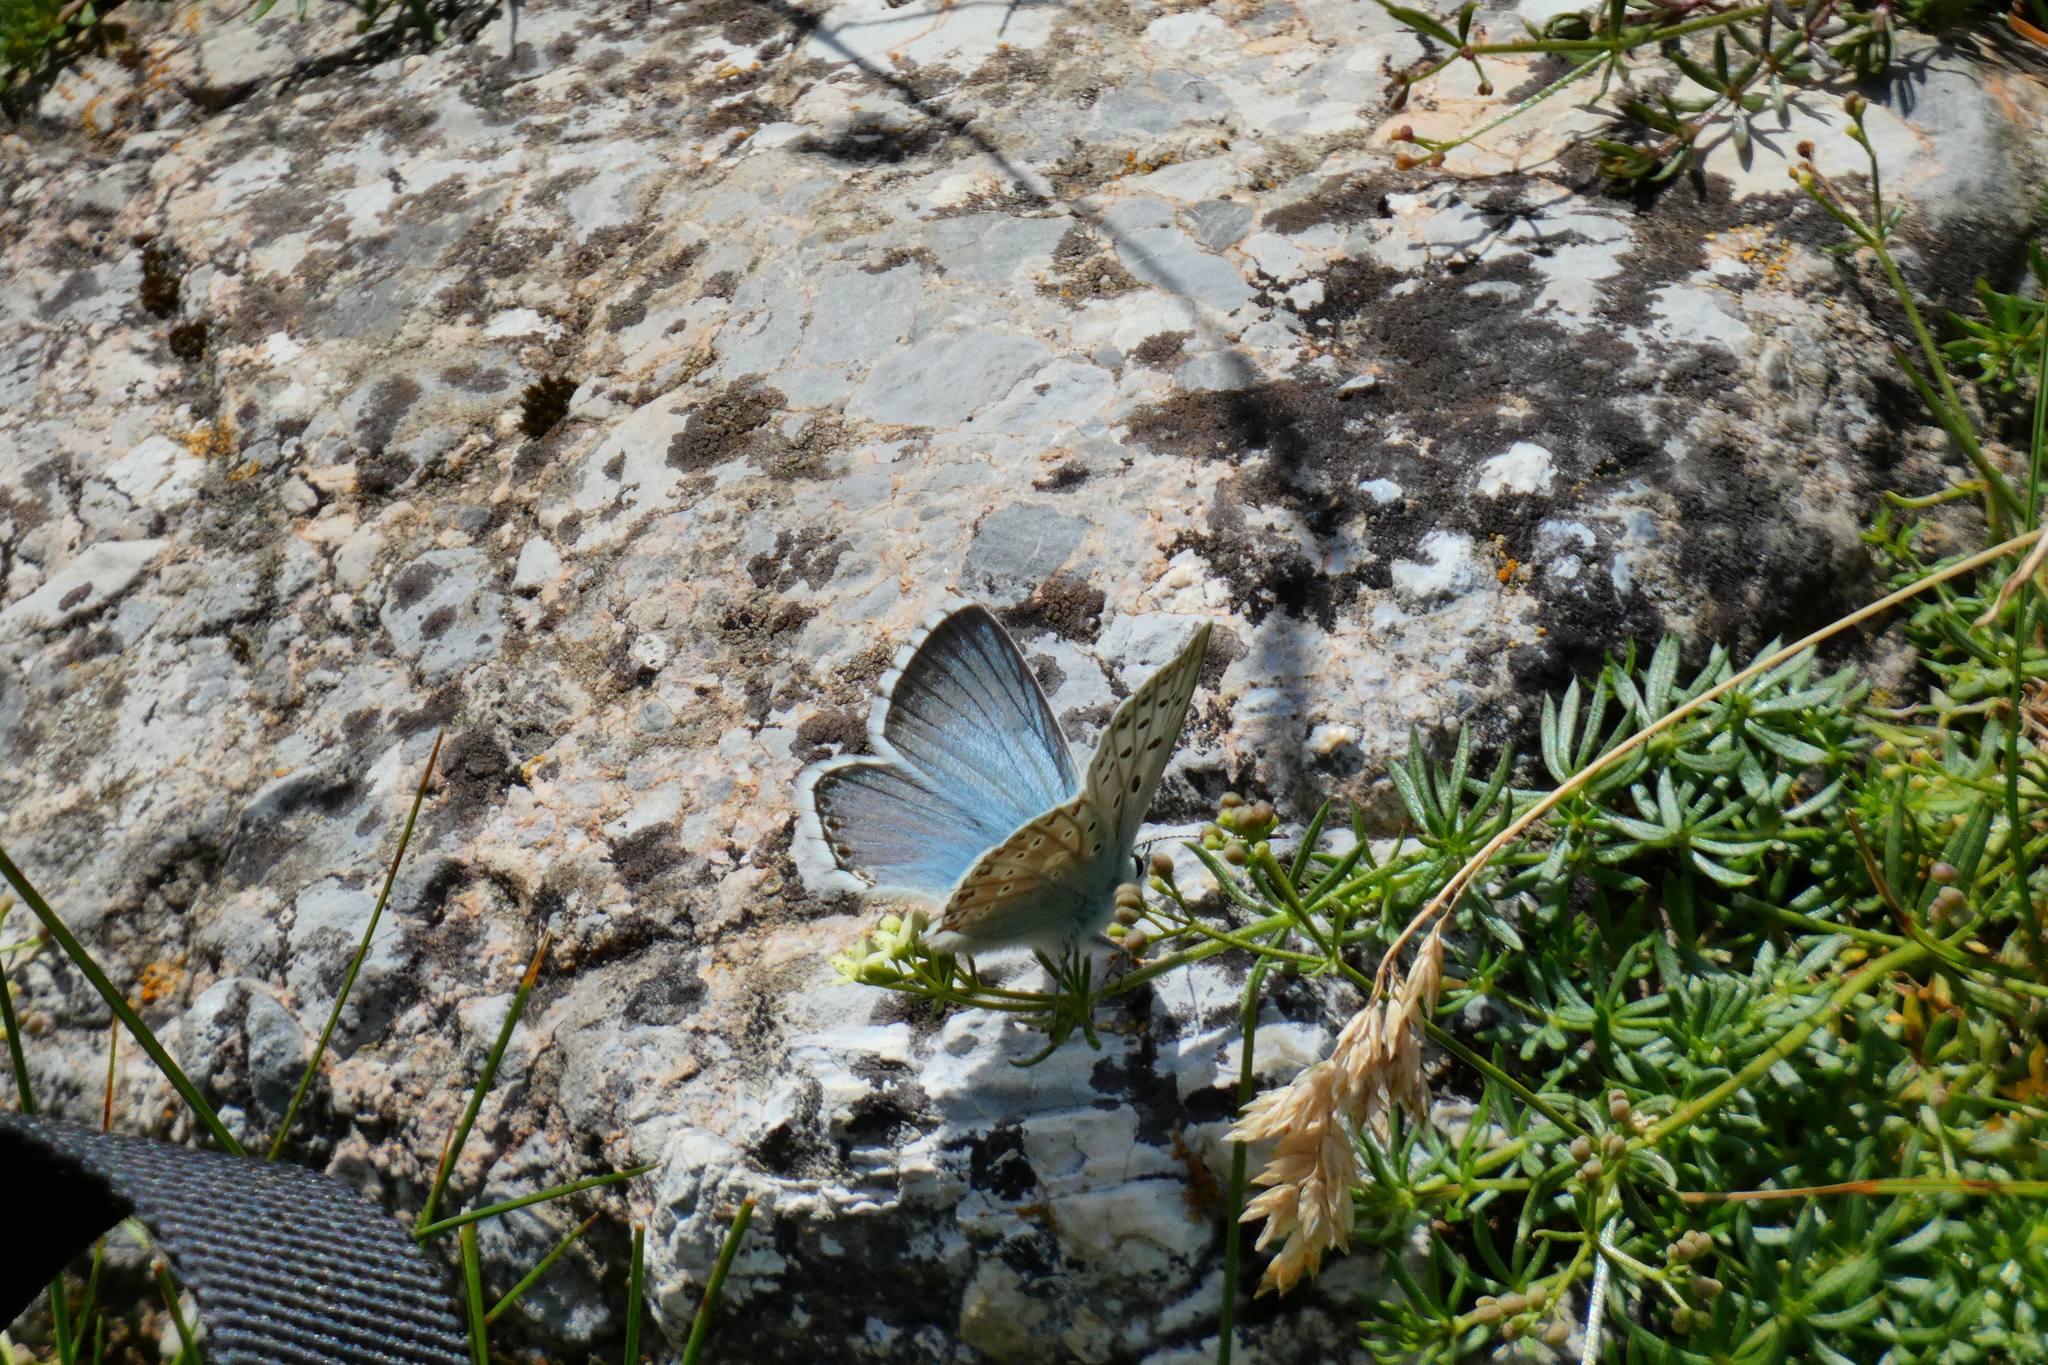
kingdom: Animalia
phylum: Arthropoda
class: Insecta
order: Lepidoptera
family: Lycaenidae
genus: Lysandra
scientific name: Lysandra coridon
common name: Chalkhill blue
